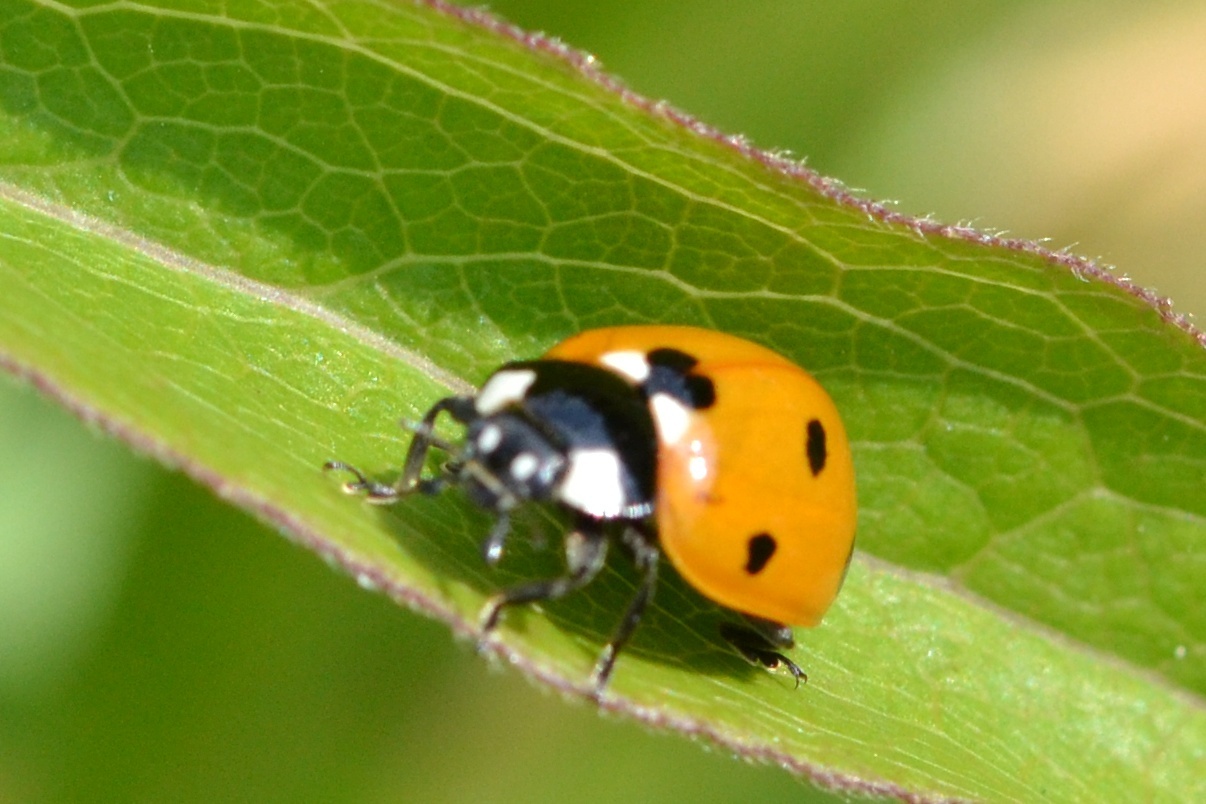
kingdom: Animalia
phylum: Arthropoda
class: Insecta
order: Coleoptera
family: Coccinellidae
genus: Coccinella
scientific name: Coccinella septempunctata
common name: Sevenspotted lady beetle
